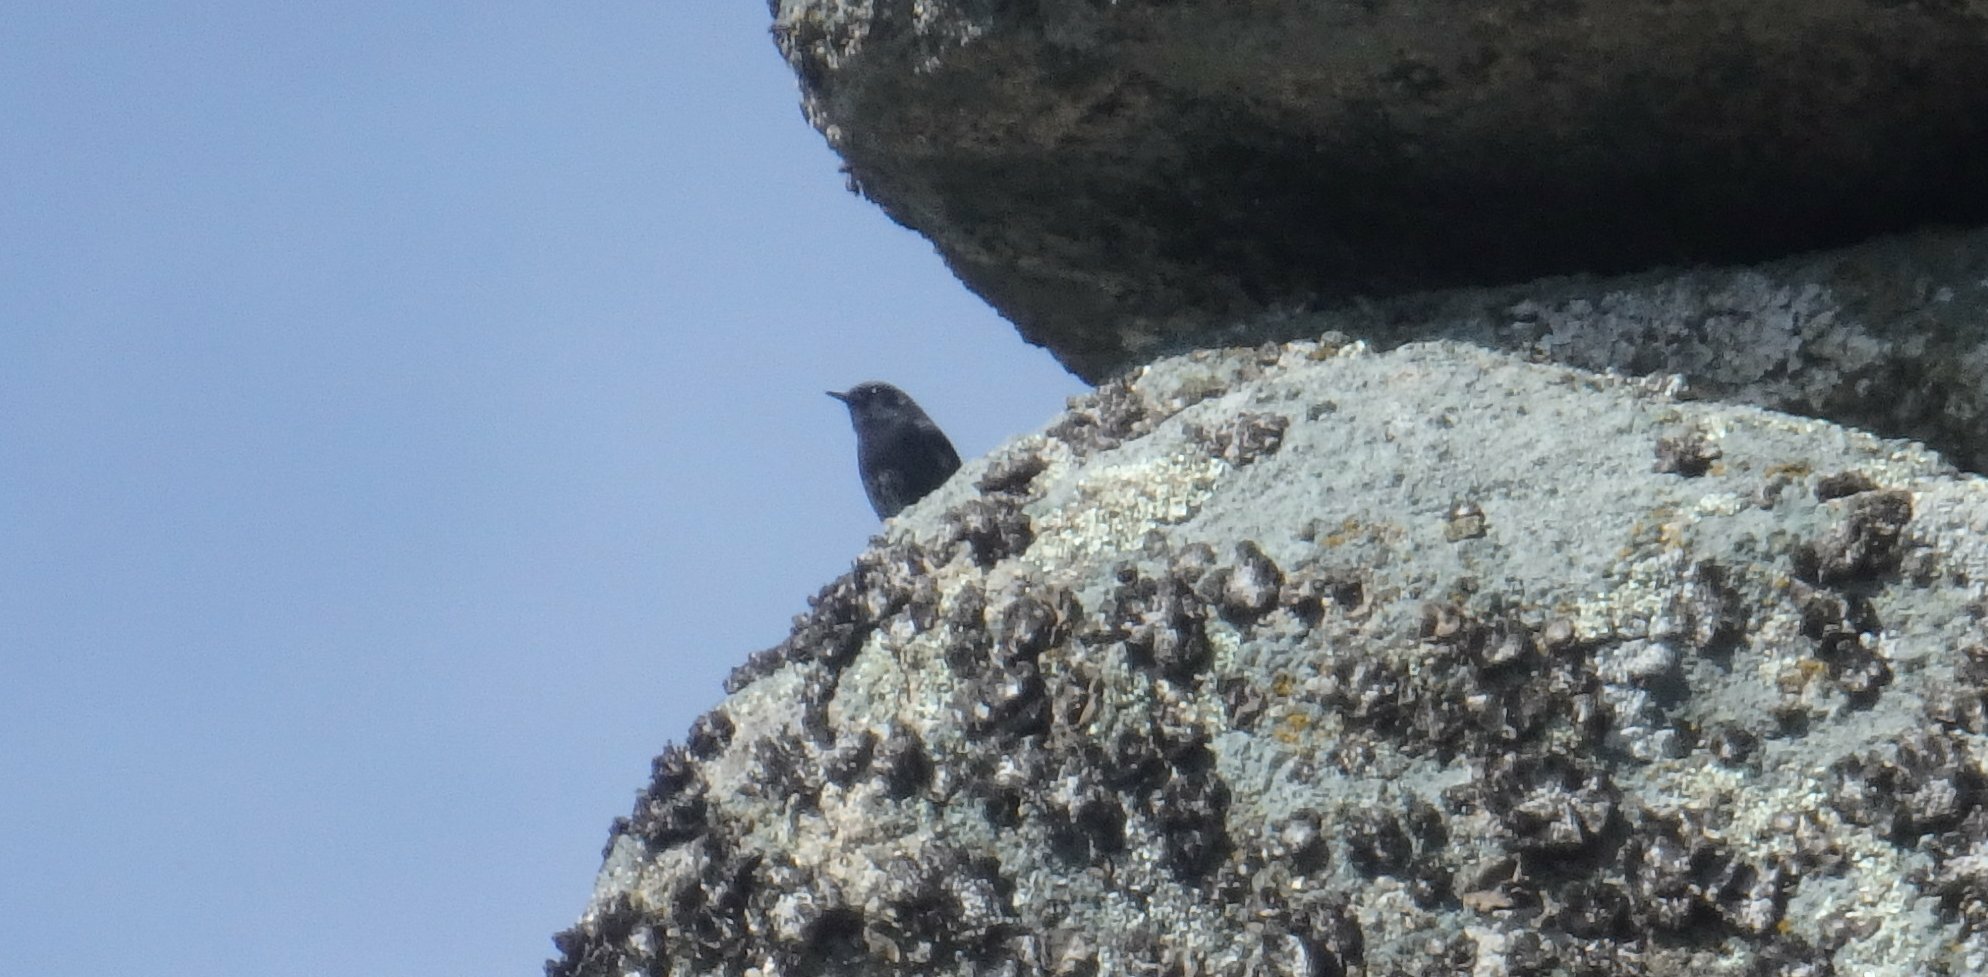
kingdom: Animalia
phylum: Chordata
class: Aves
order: Passeriformes
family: Muscicapidae
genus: Phoenicurus
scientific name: Phoenicurus ochruros
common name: Black redstart
